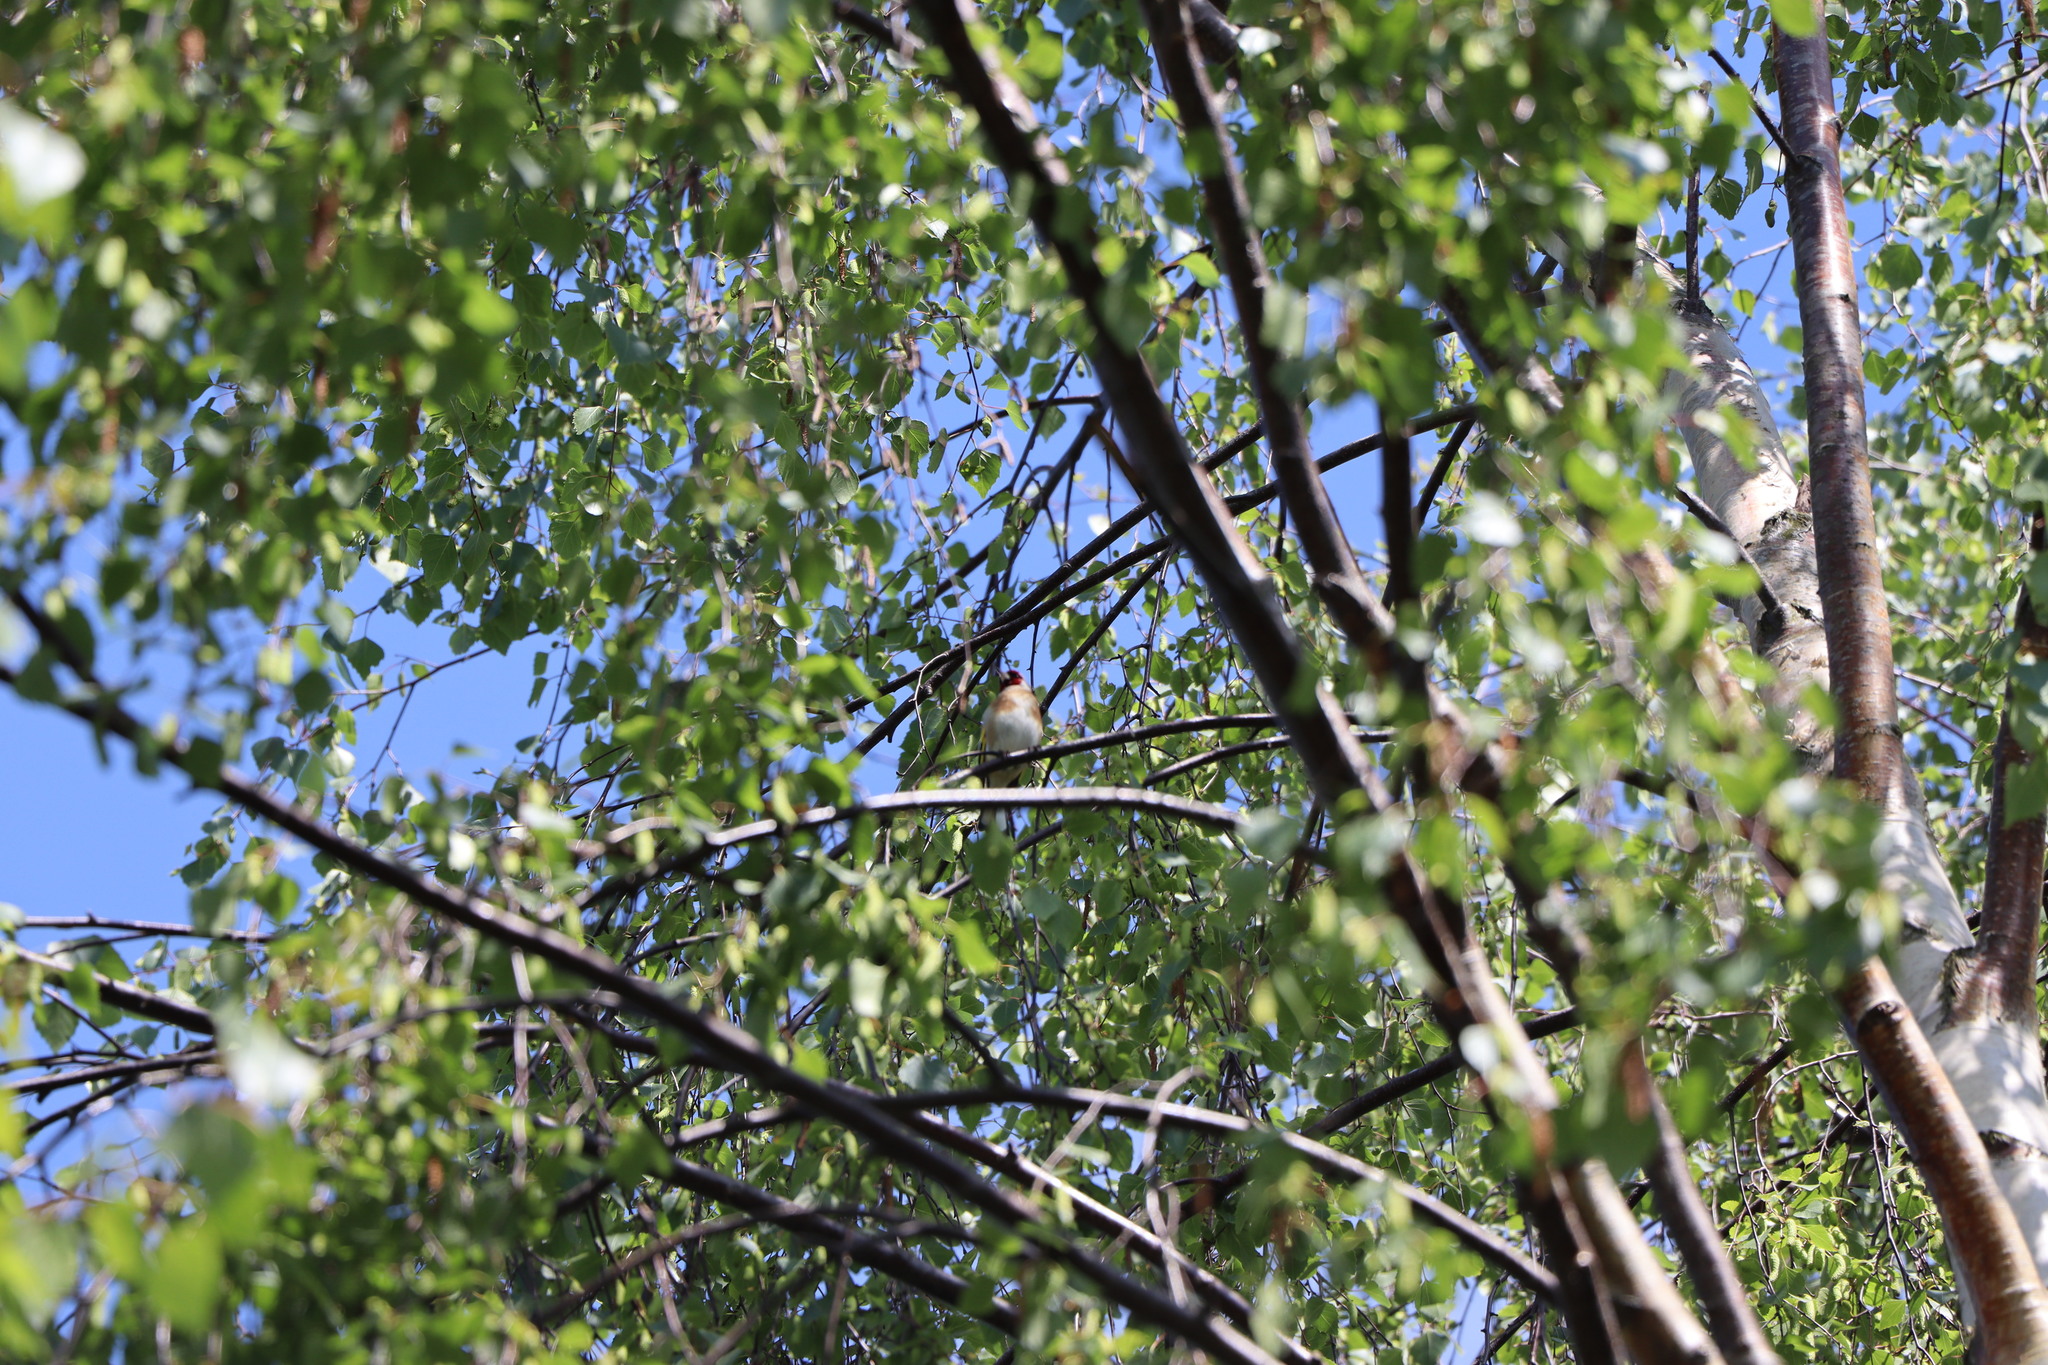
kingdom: Animalia
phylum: Chordata
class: Aves
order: Passeriformes
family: Fringillidae
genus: Carduelis
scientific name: Carduelis carduelis
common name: European goldfinch
